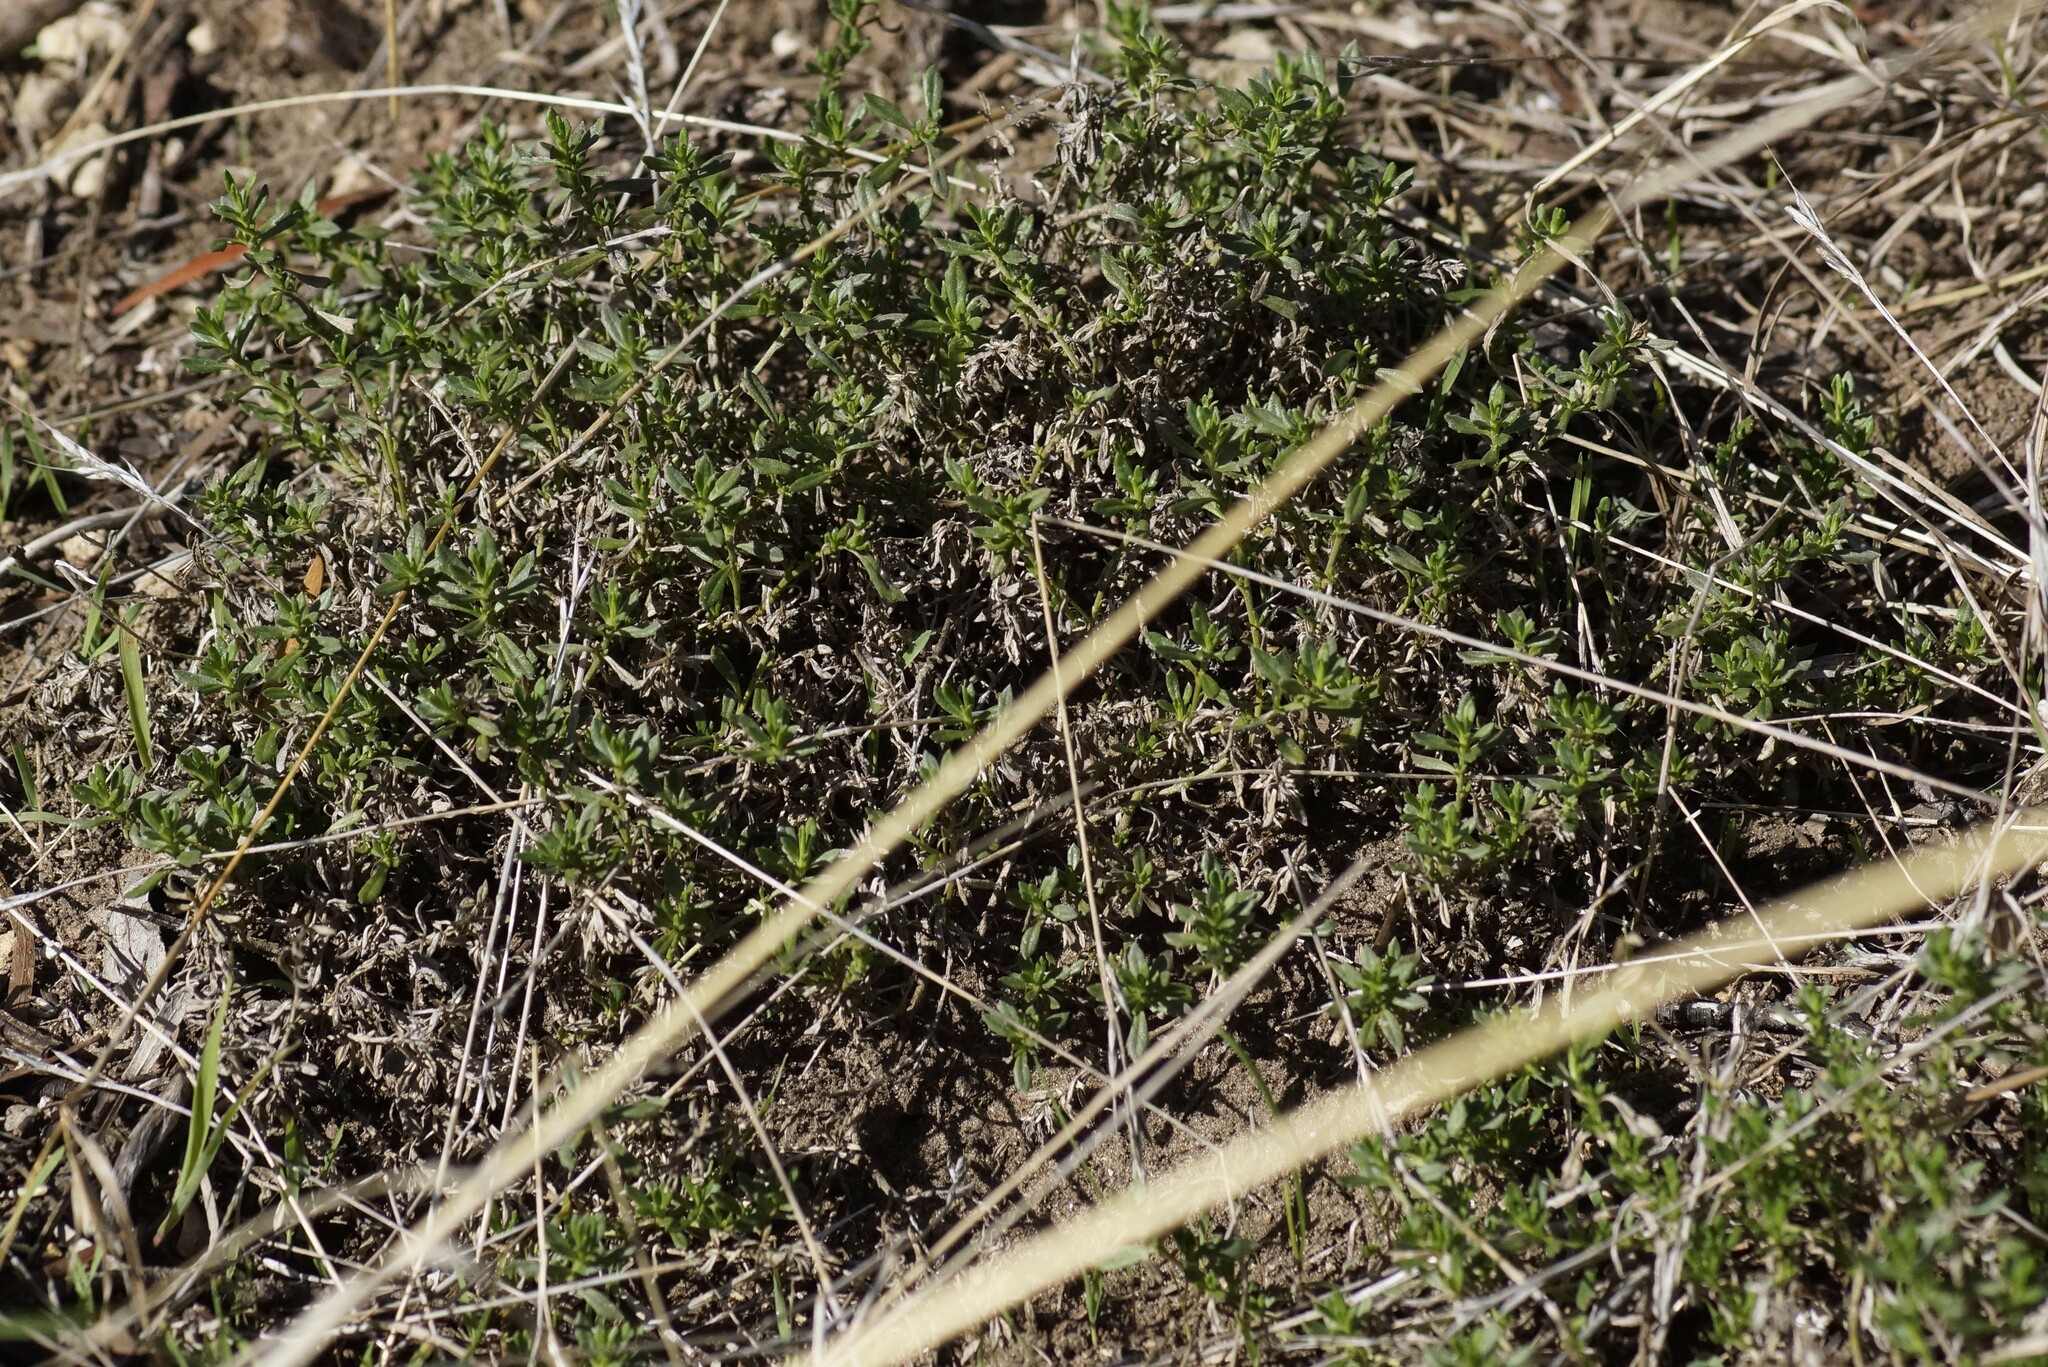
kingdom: Plantae
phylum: Tracheophyta
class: Magnoliopsida
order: Asterales
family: Goodeniaceae
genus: Scaevola
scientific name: Scaevola albida
